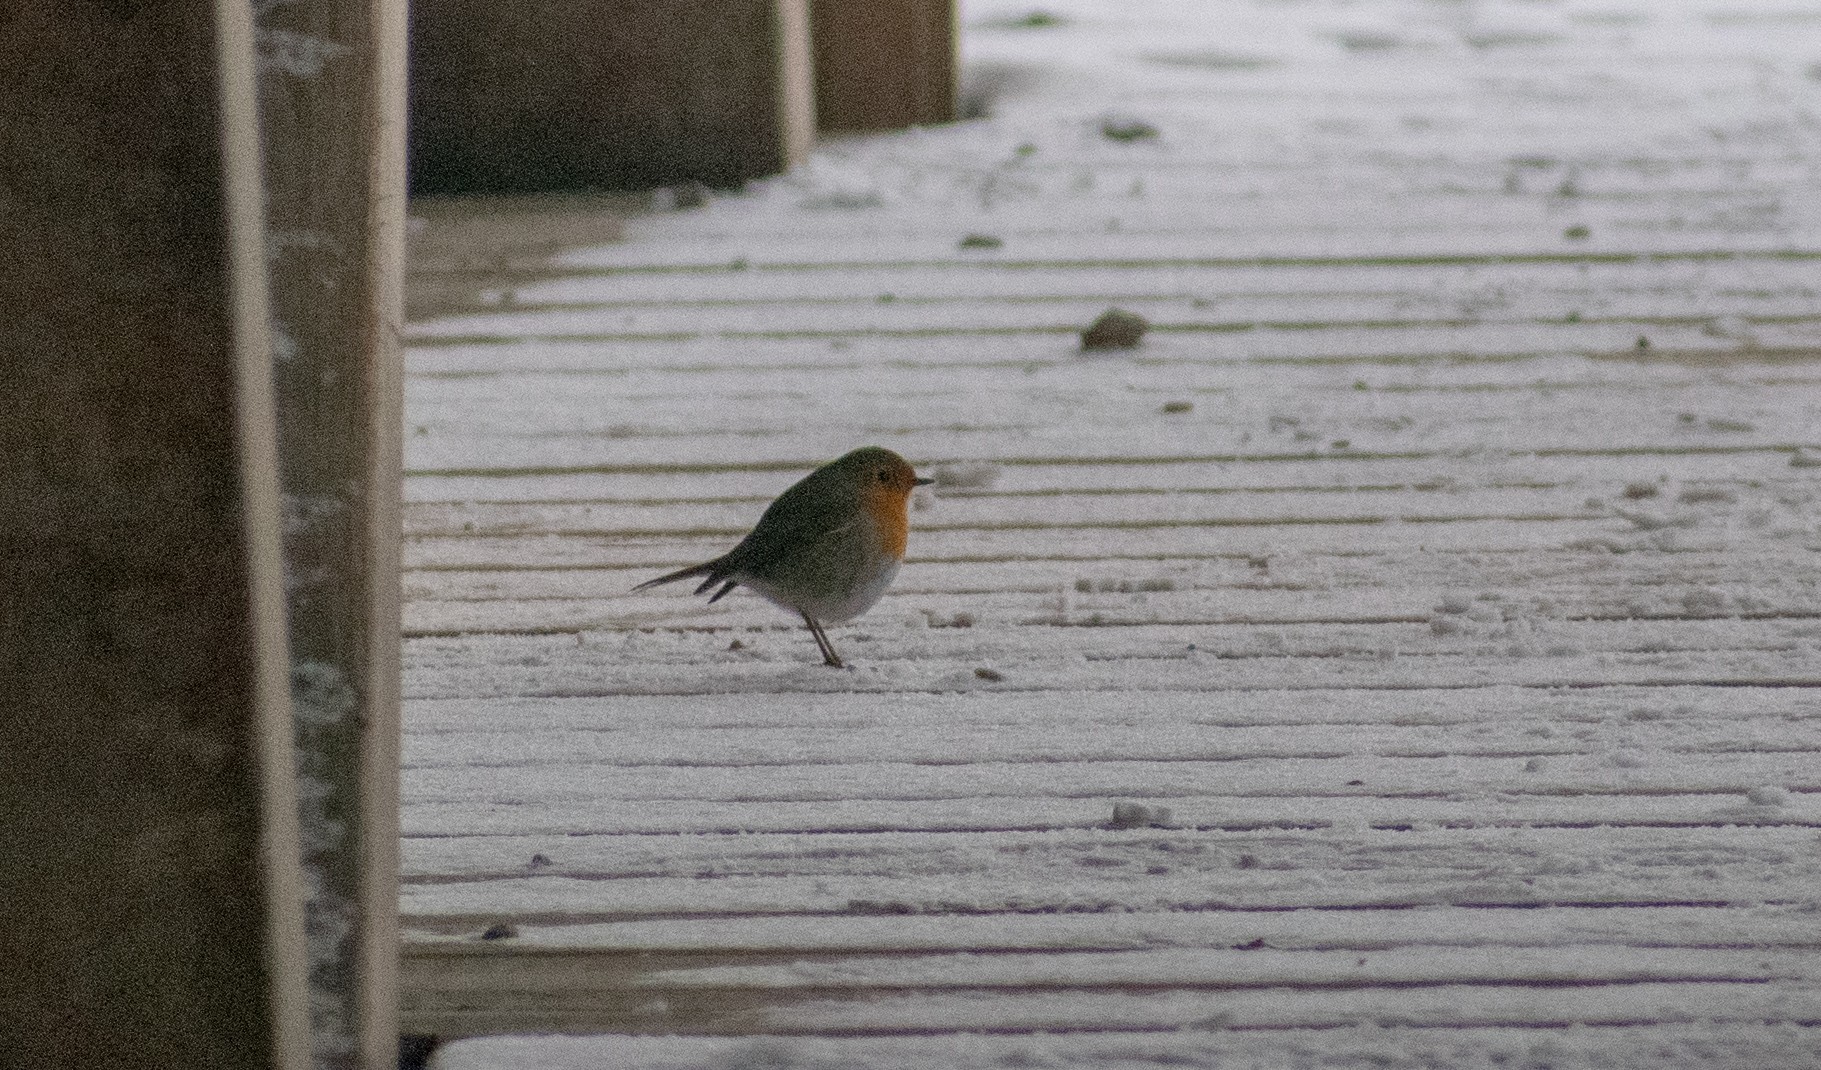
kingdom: Animalia
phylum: Chordata
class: Aves
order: Passeriformes
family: Muscicapidae
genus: Erithacus
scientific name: Erithacus rubecula
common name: European robin
